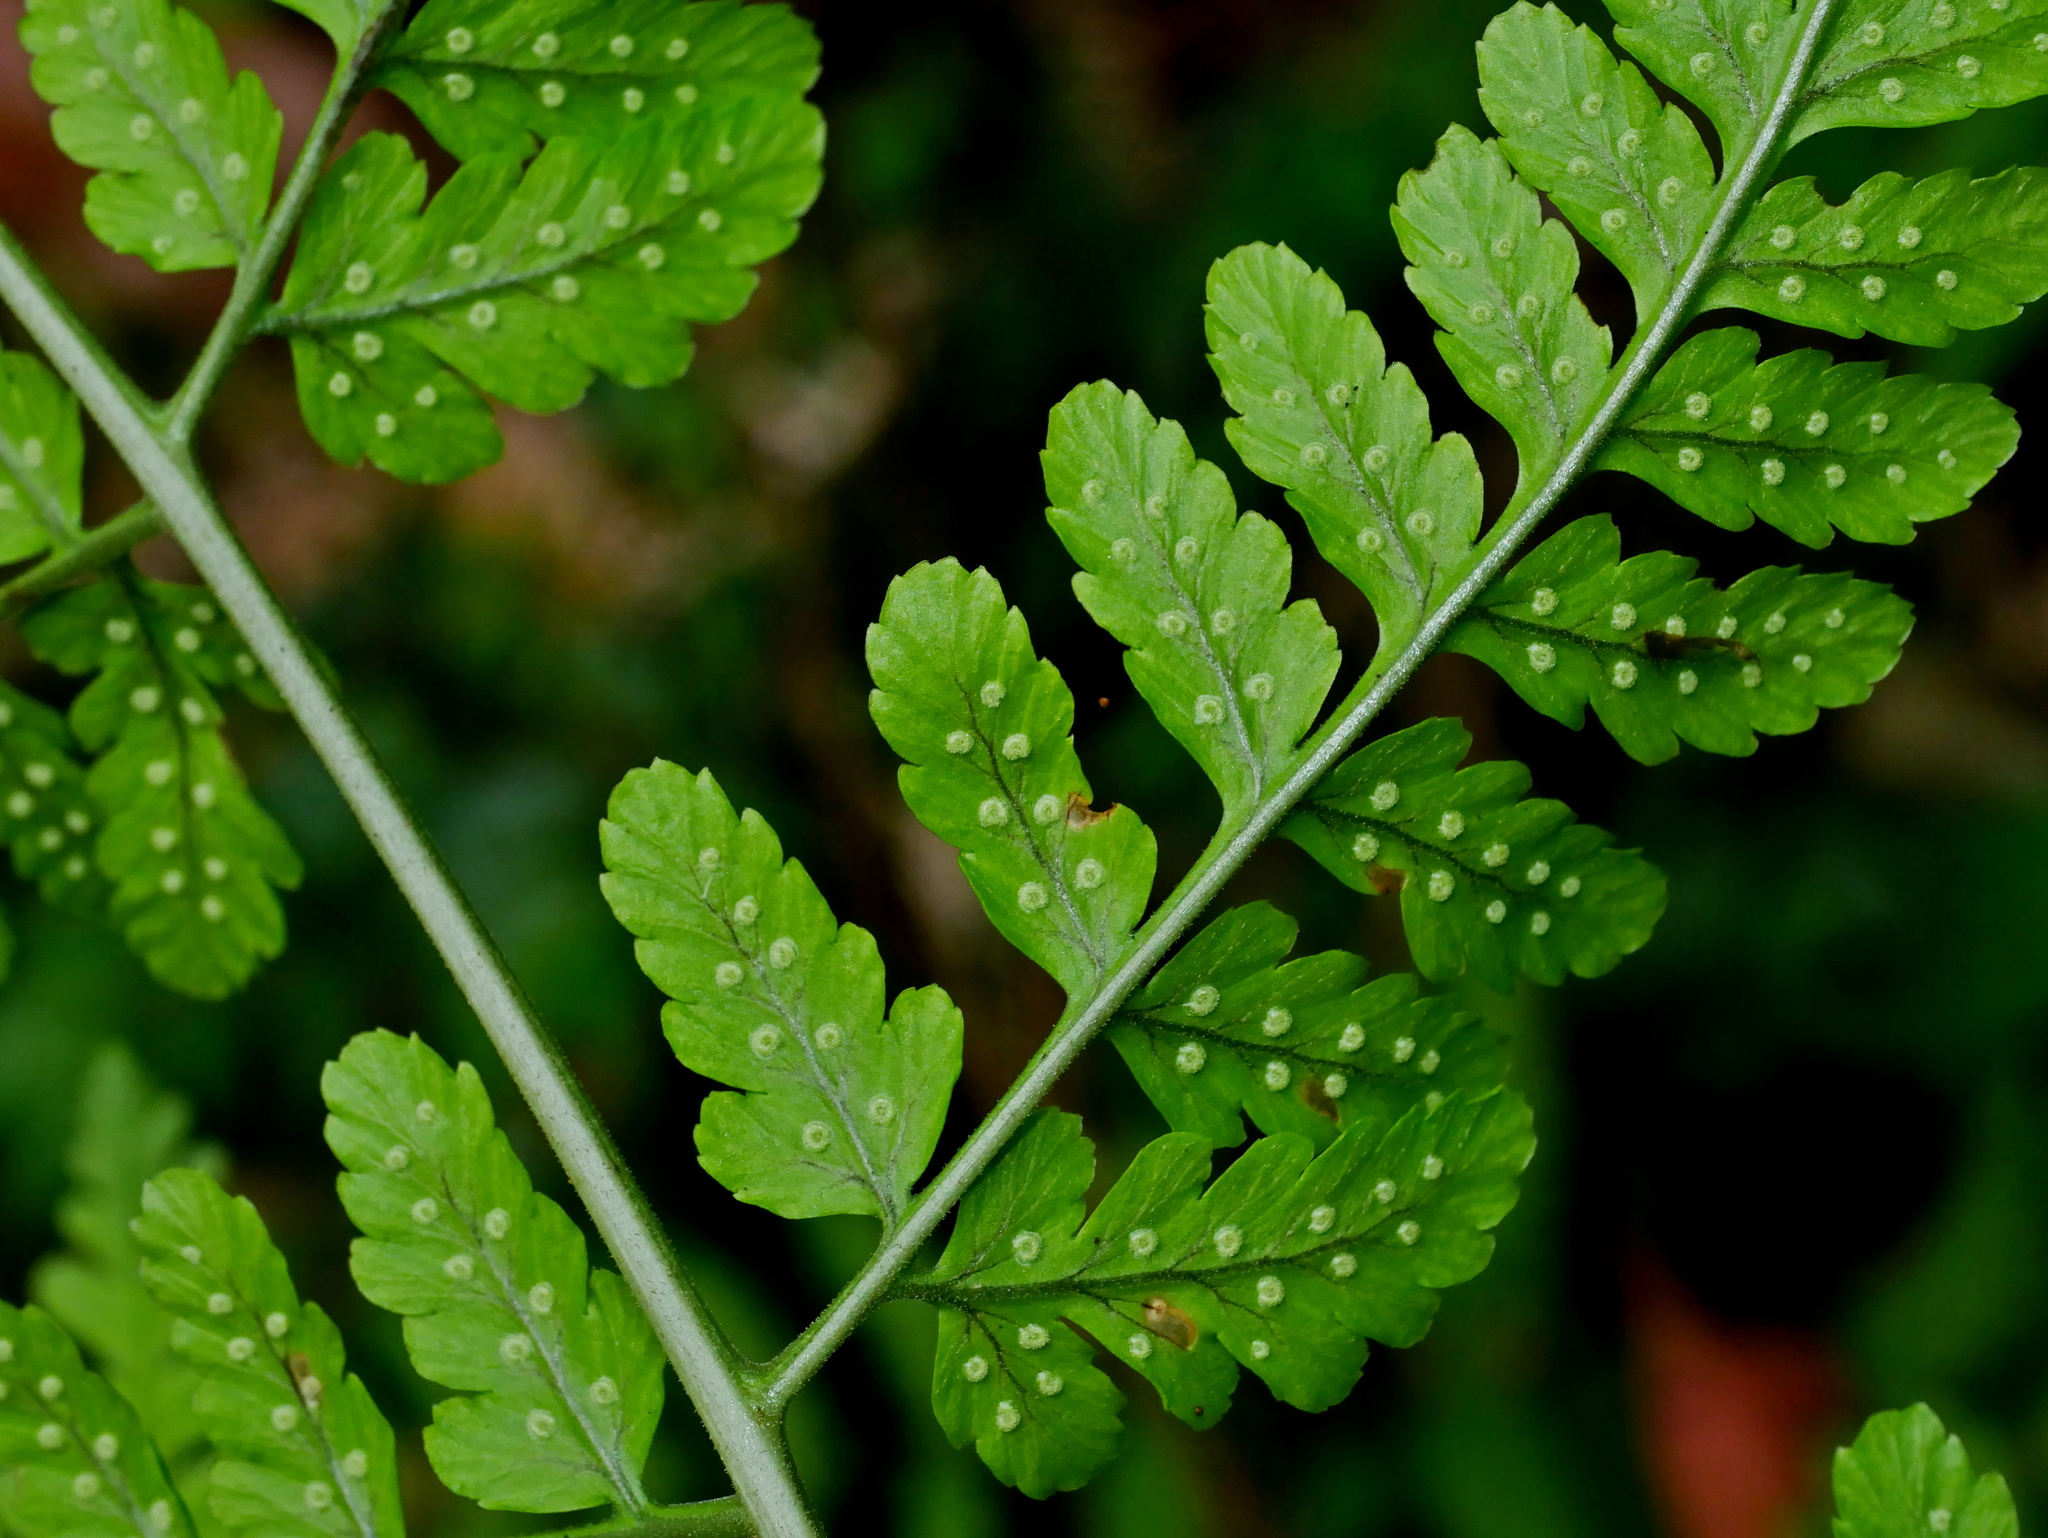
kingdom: Plantae
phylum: Tracheophyta
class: Polypodiopsida
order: Polypodiales
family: Dryopteridaceae
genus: Dryopteris
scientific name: Dryopteris sparsa
